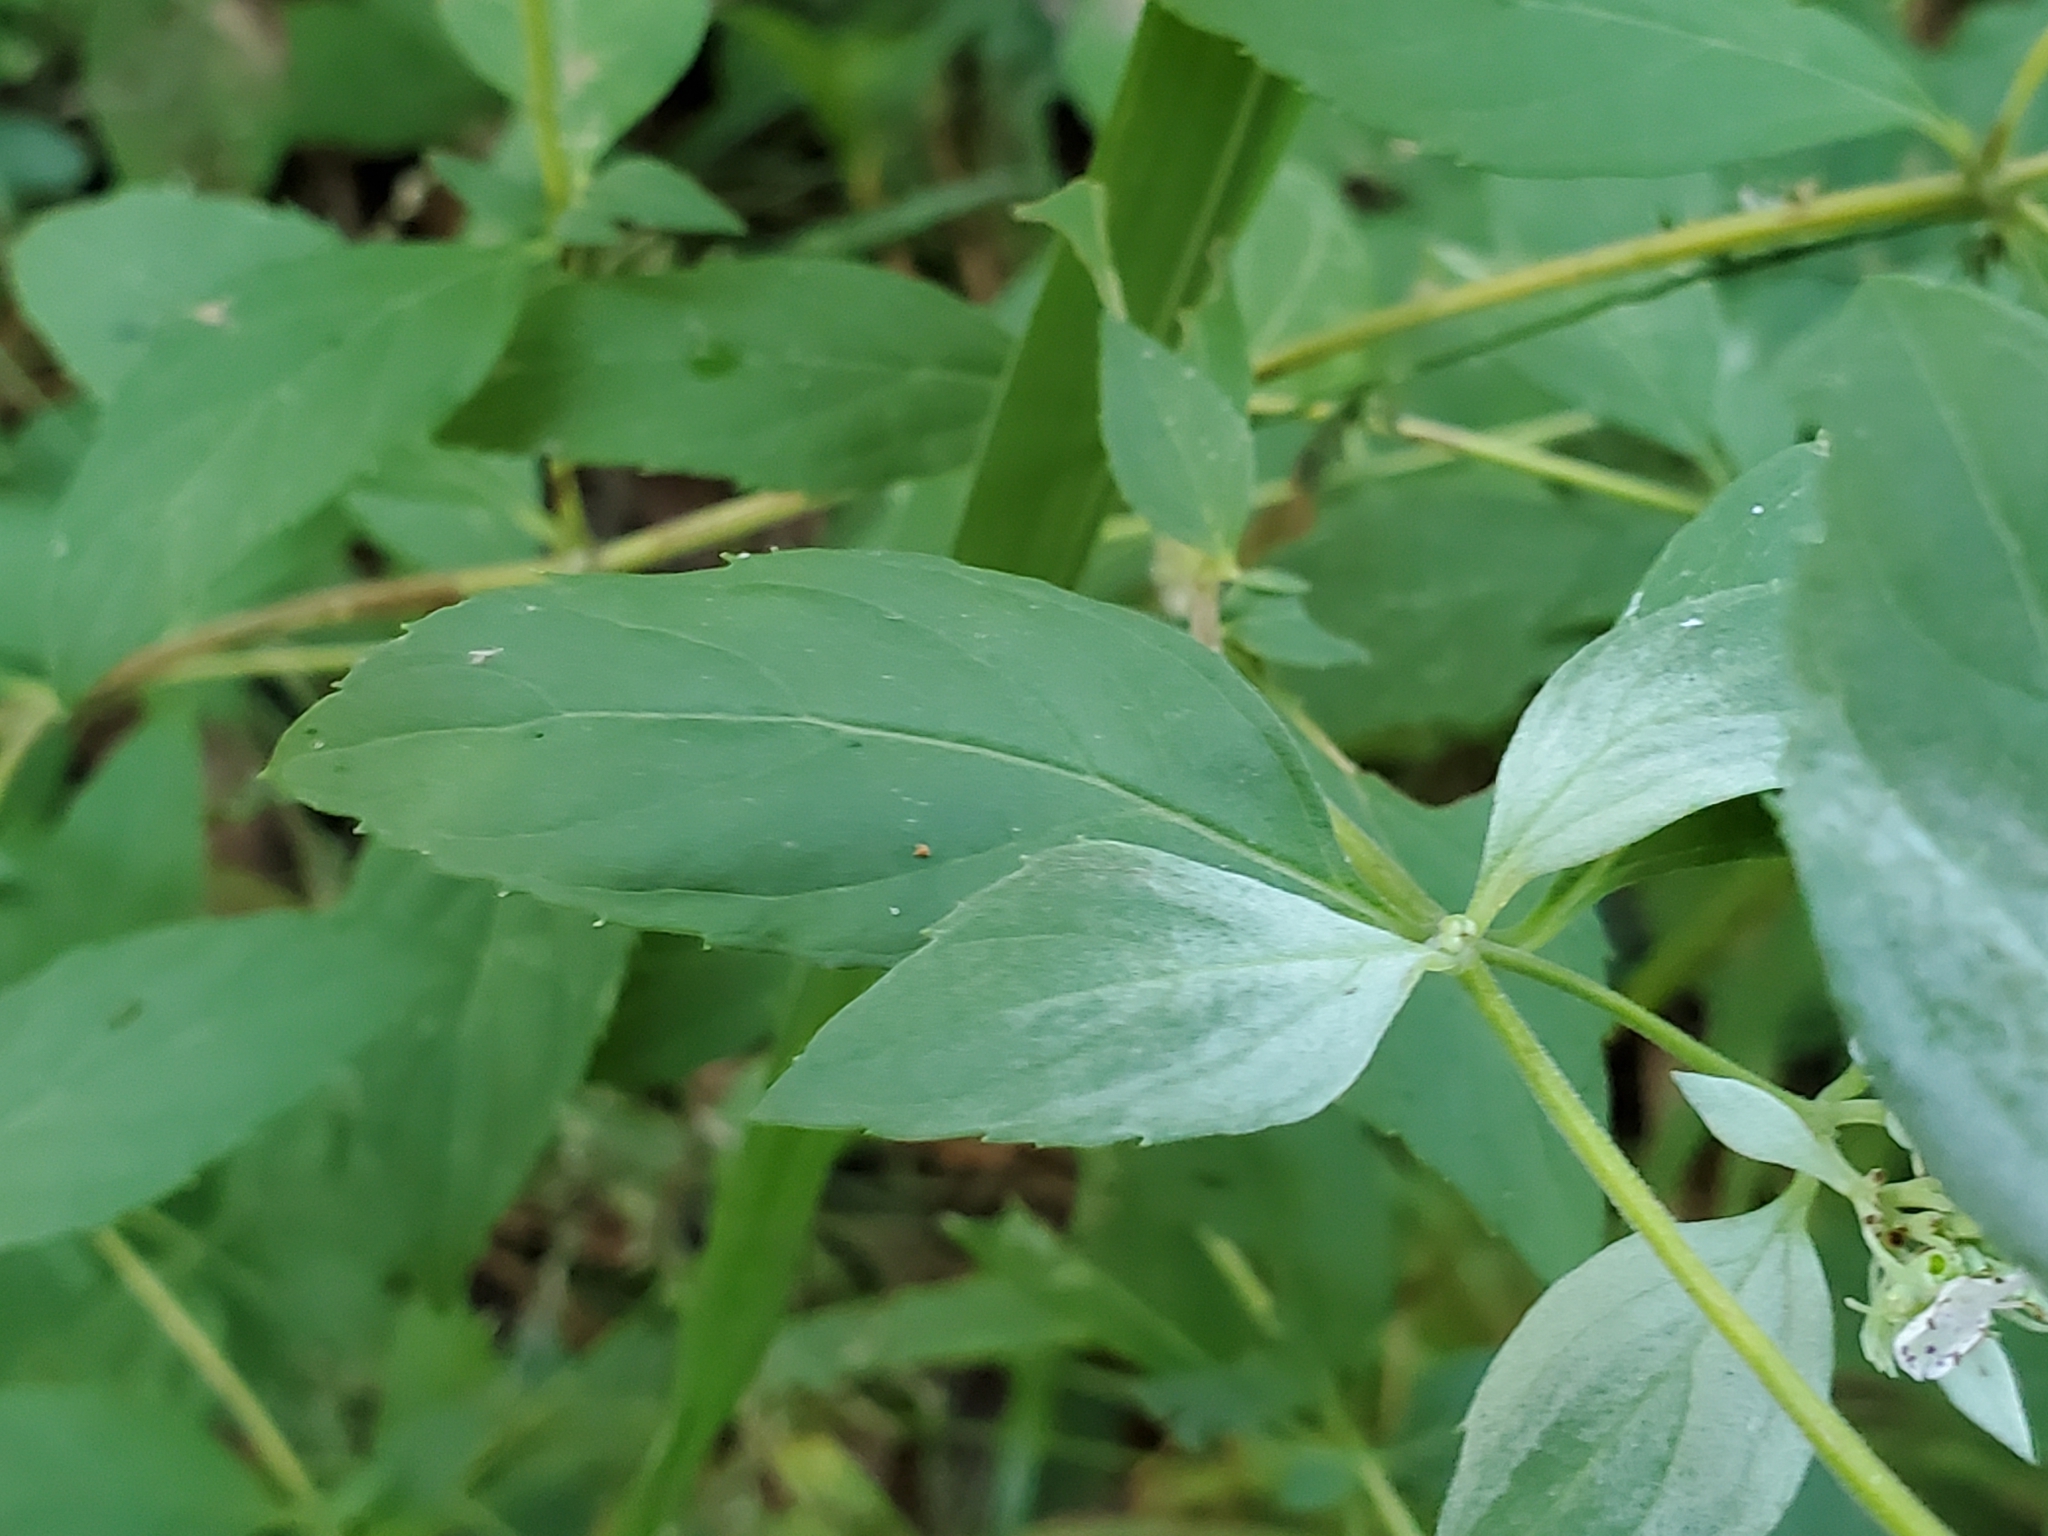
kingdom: Plantae
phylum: Tracheophyta
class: Magnoliopsida
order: Lamiales
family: Lamiaceae
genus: Pycnanthemum
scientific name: Pycnanthemum albescens
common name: White-leaf mountain-mint
